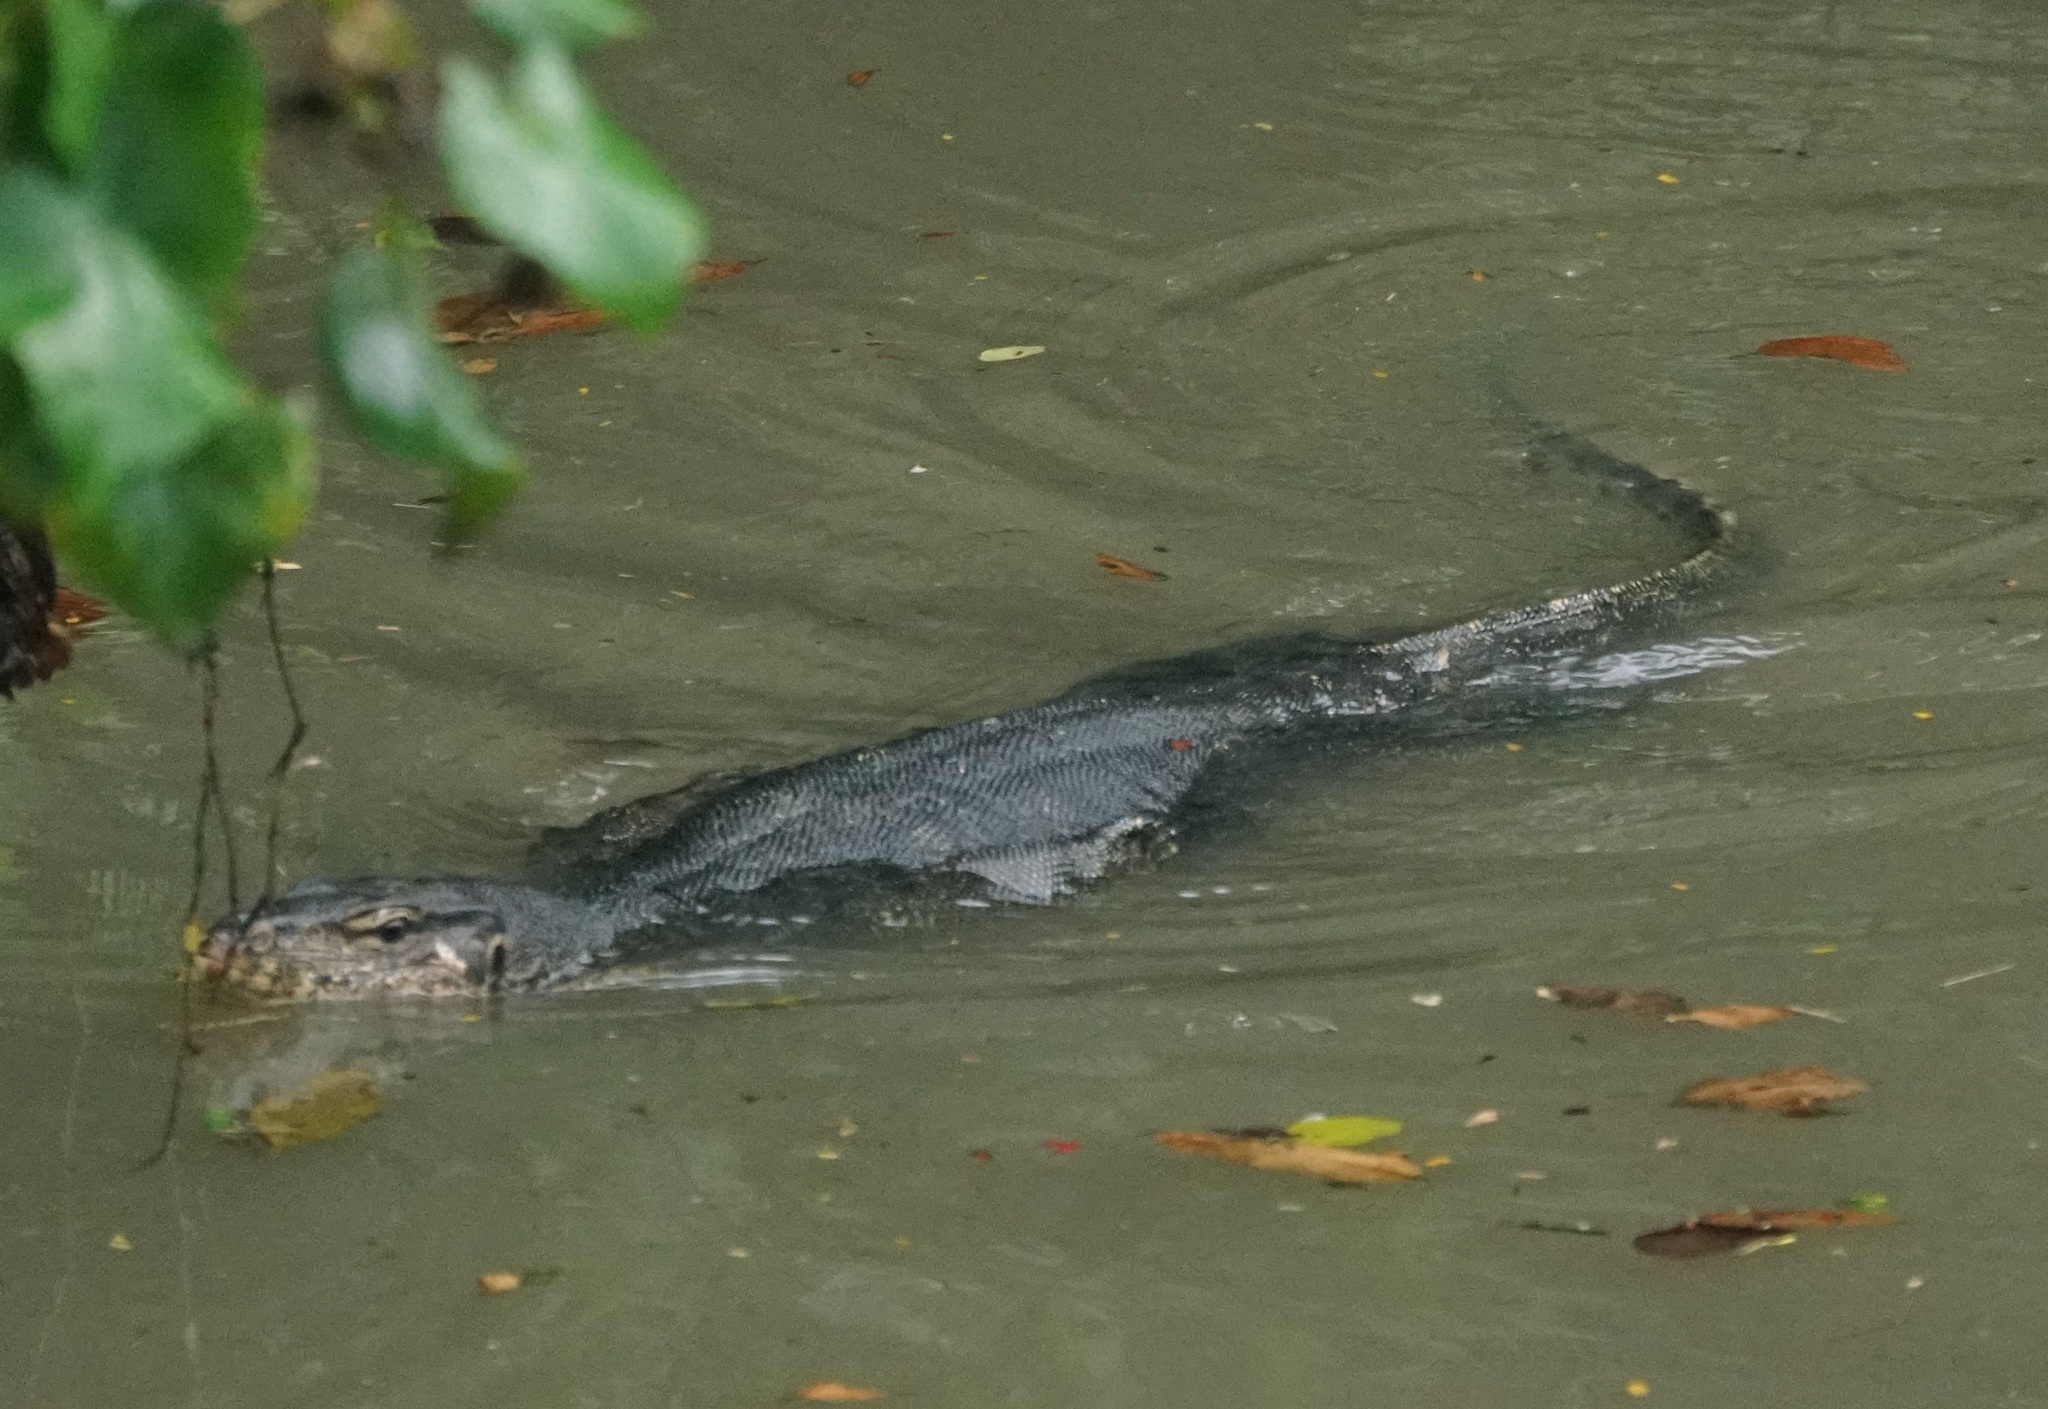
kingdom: Animalia
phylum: Chordata
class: Squamata
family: Varanidae
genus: Varanus
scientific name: Varanus salvator
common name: Common water monitor
